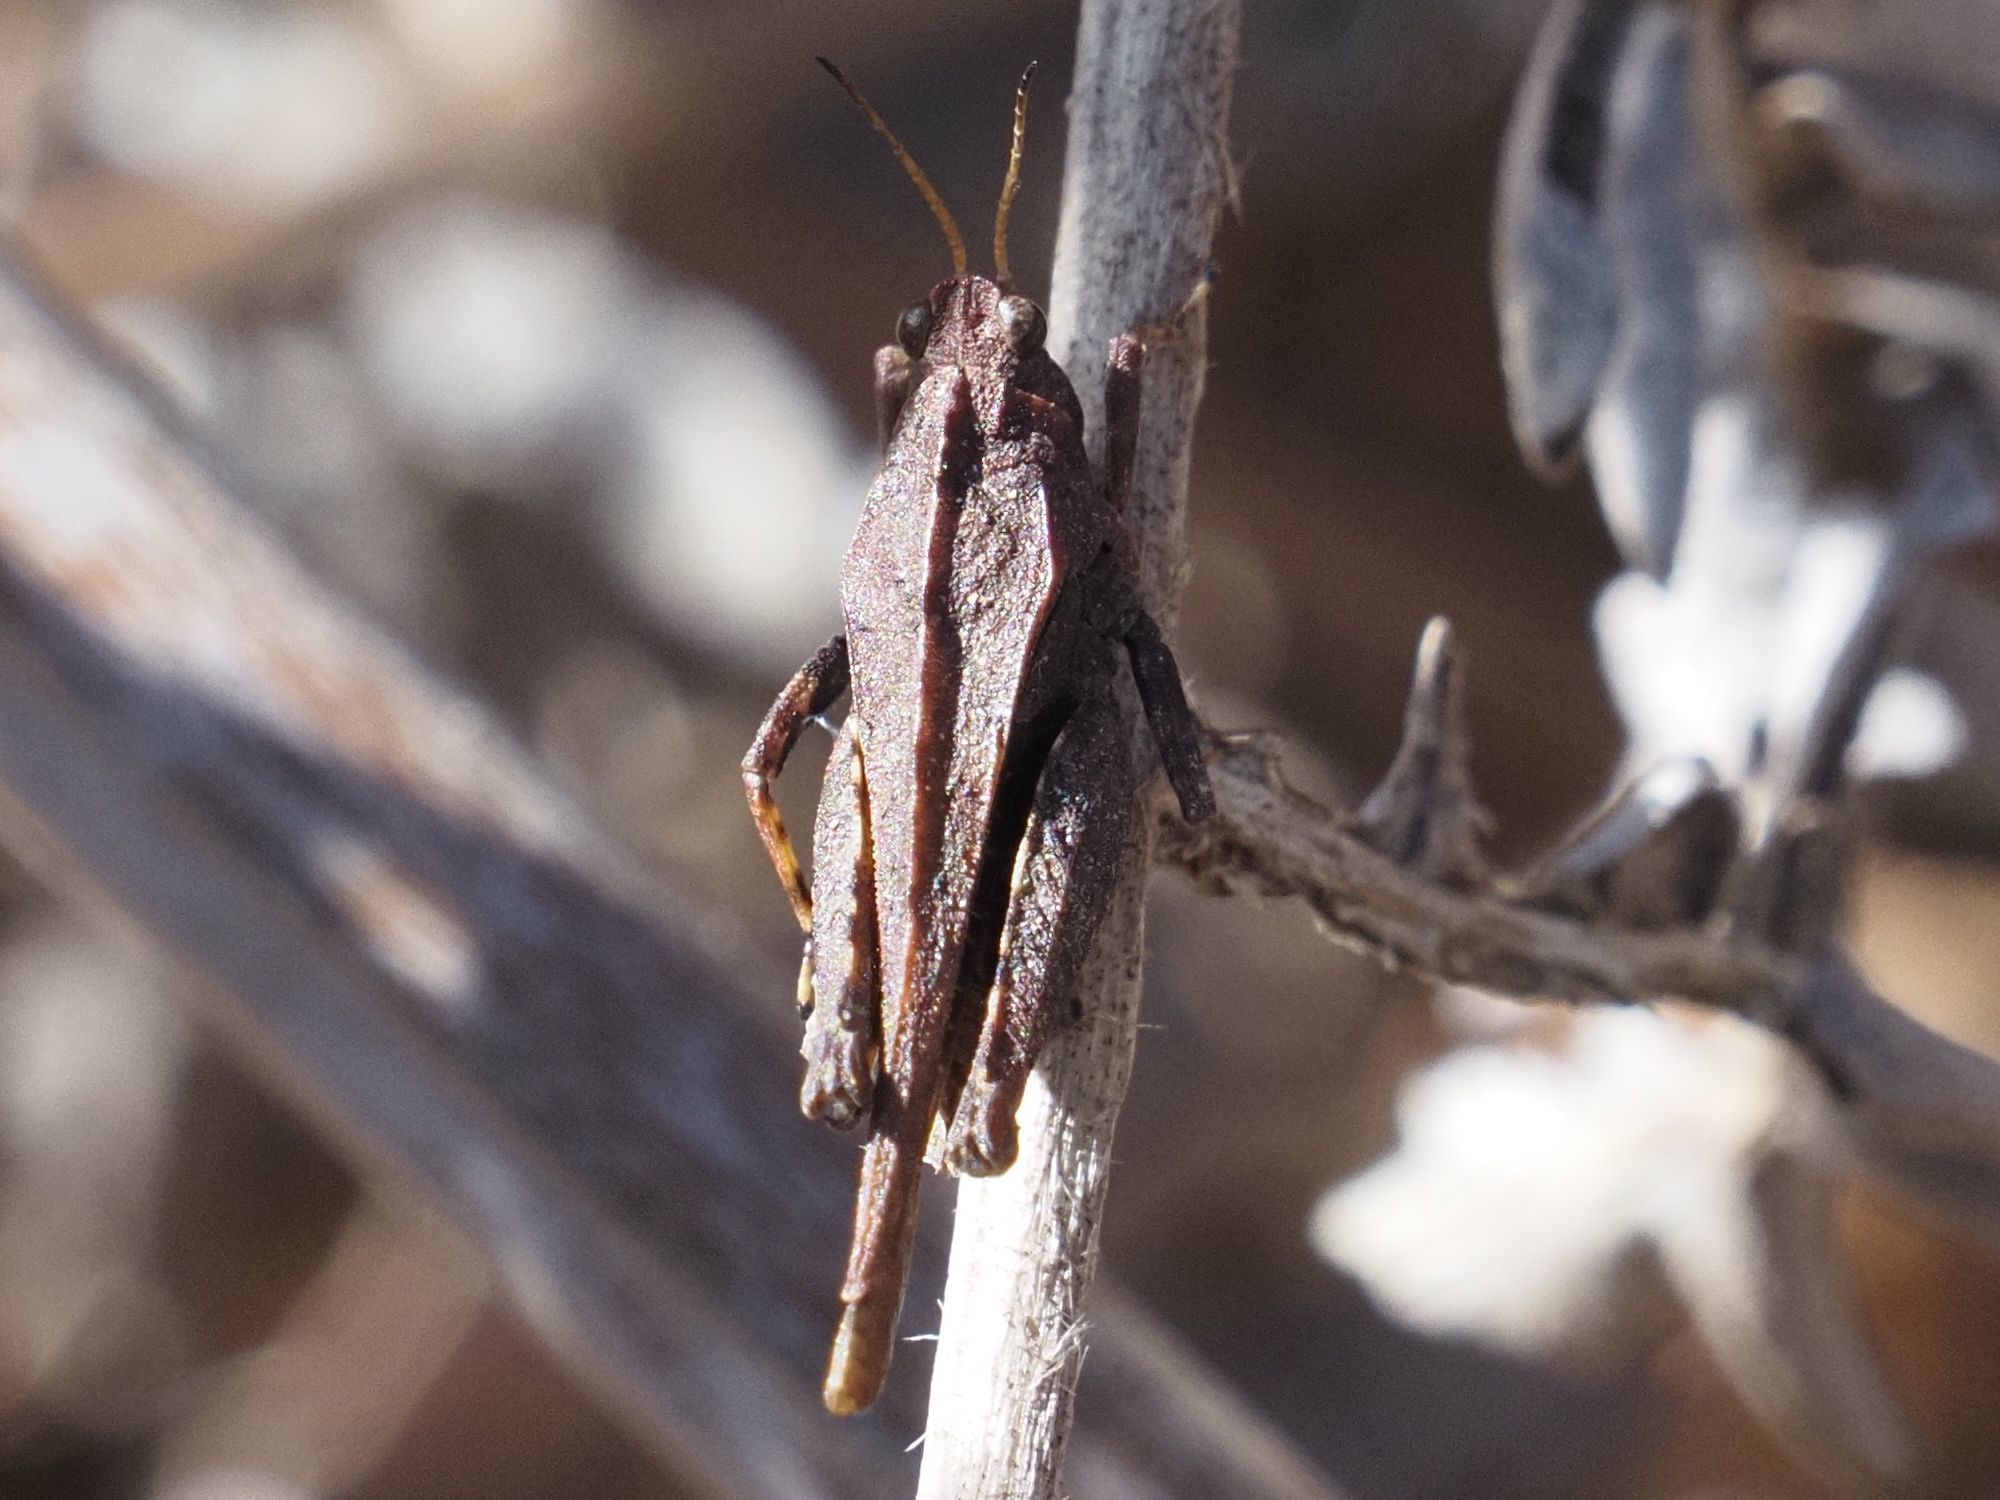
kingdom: Animalia
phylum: Arthropoda
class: Insecta
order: Orthoptera
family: Tetrigidae
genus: Tetrix
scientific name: Tetrix undulata
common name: Common groundhopper
